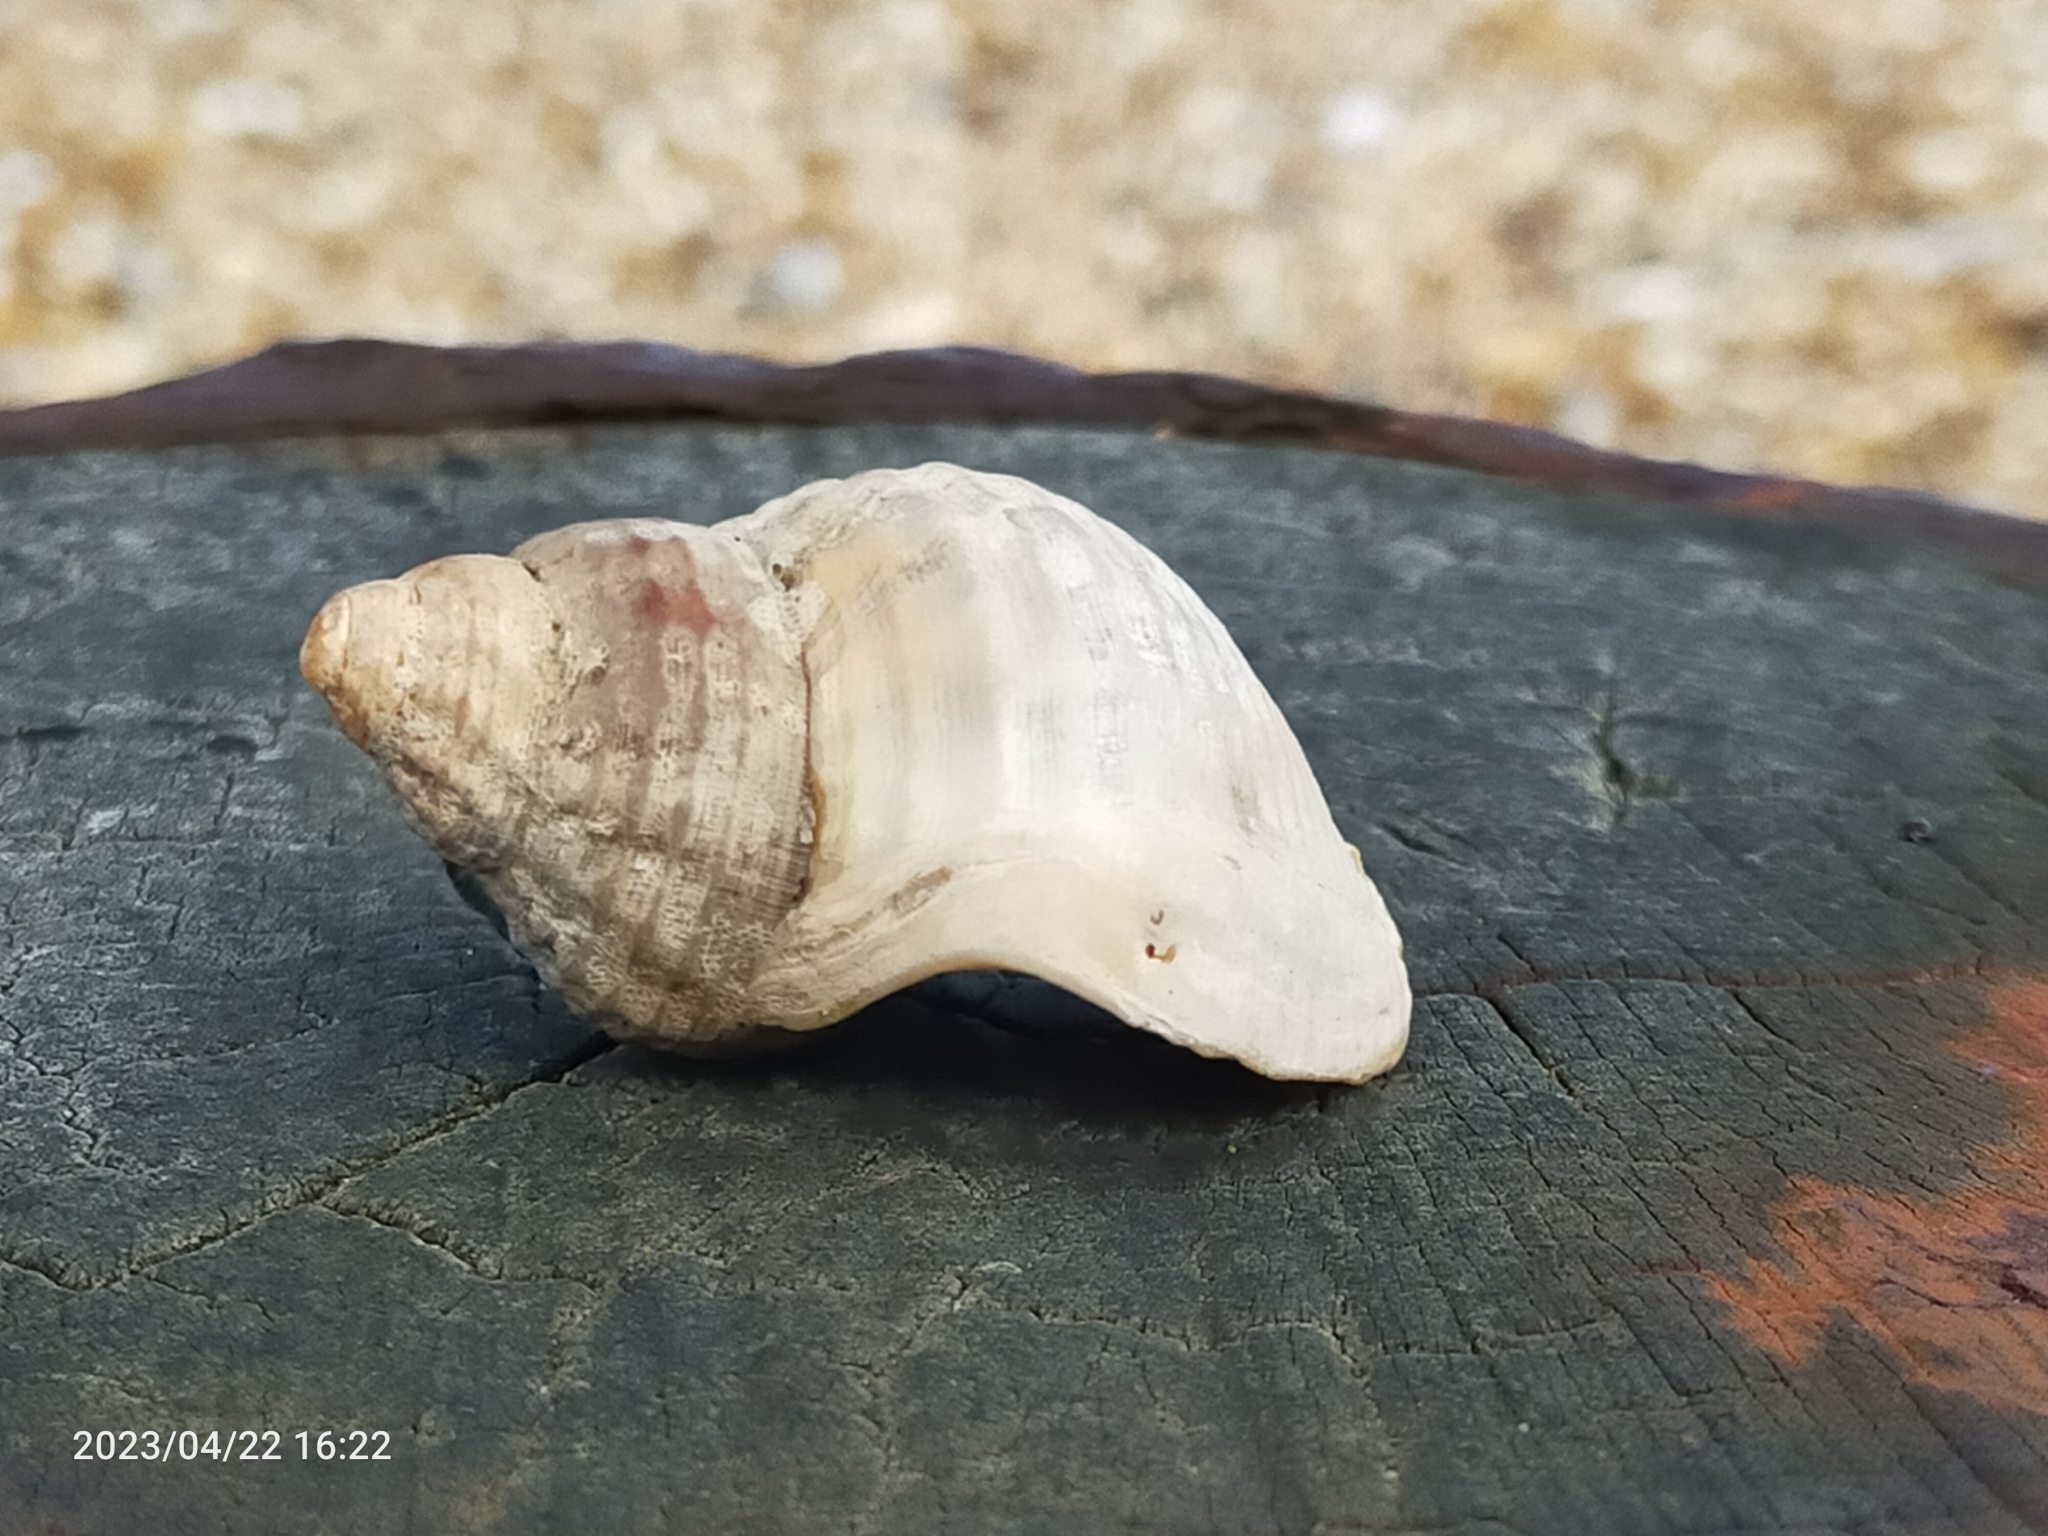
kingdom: Animalia
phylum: Mollusca
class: Gastropoda
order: Neogastropoda
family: Buccinidae
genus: Buccinum
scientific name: Buccinum undatum
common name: Common whelk
